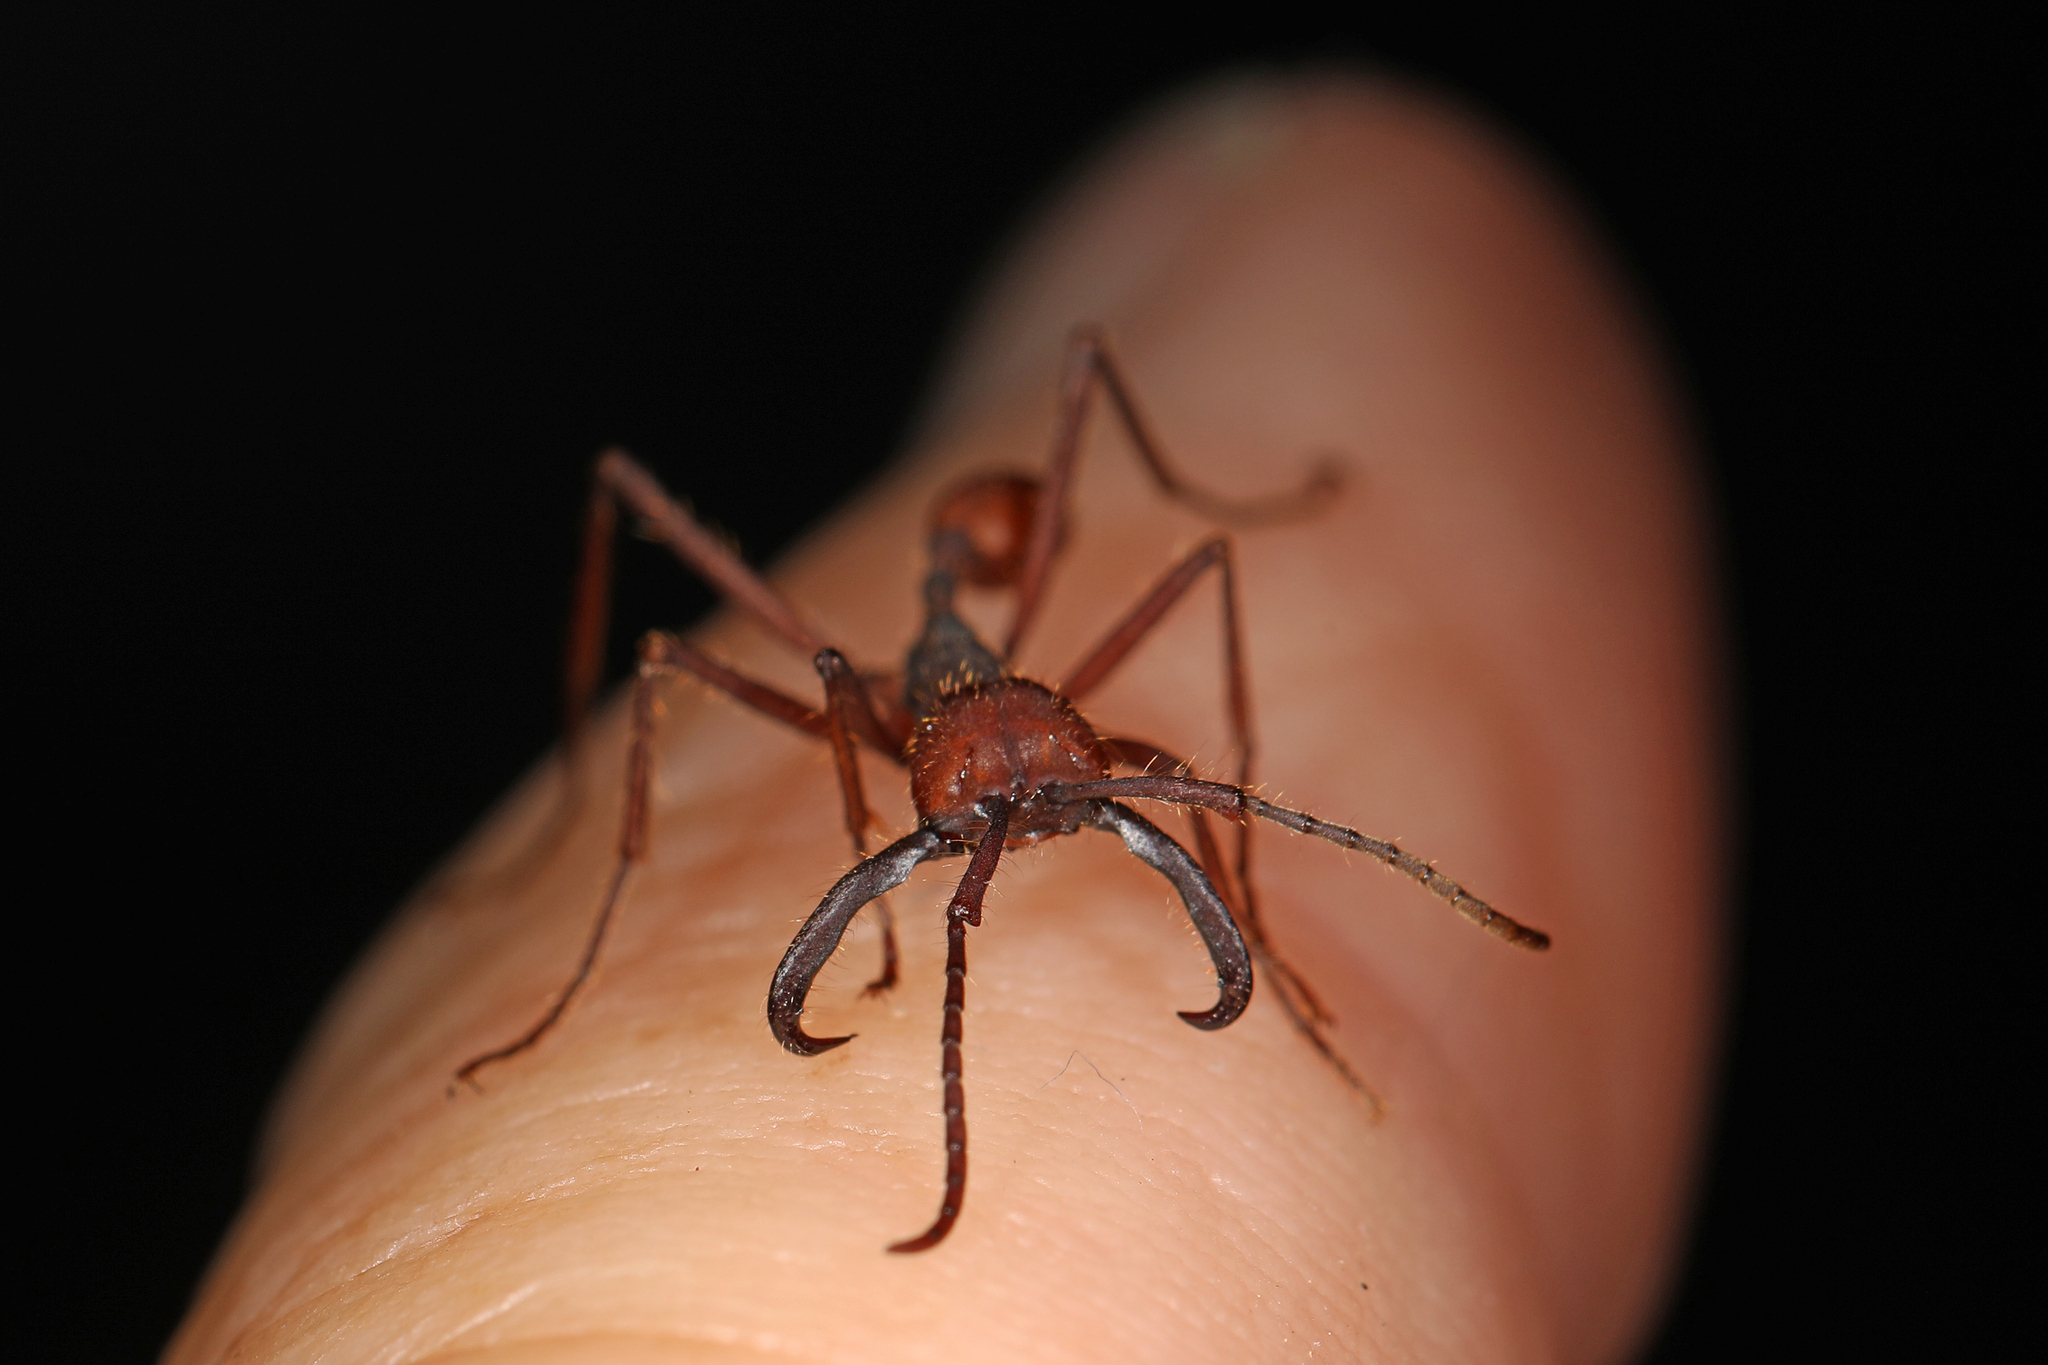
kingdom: Animalia
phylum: Arthropoda
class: Insecta
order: Hymenoptera
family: Formicidae
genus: Eciton
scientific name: Eciton vagans
